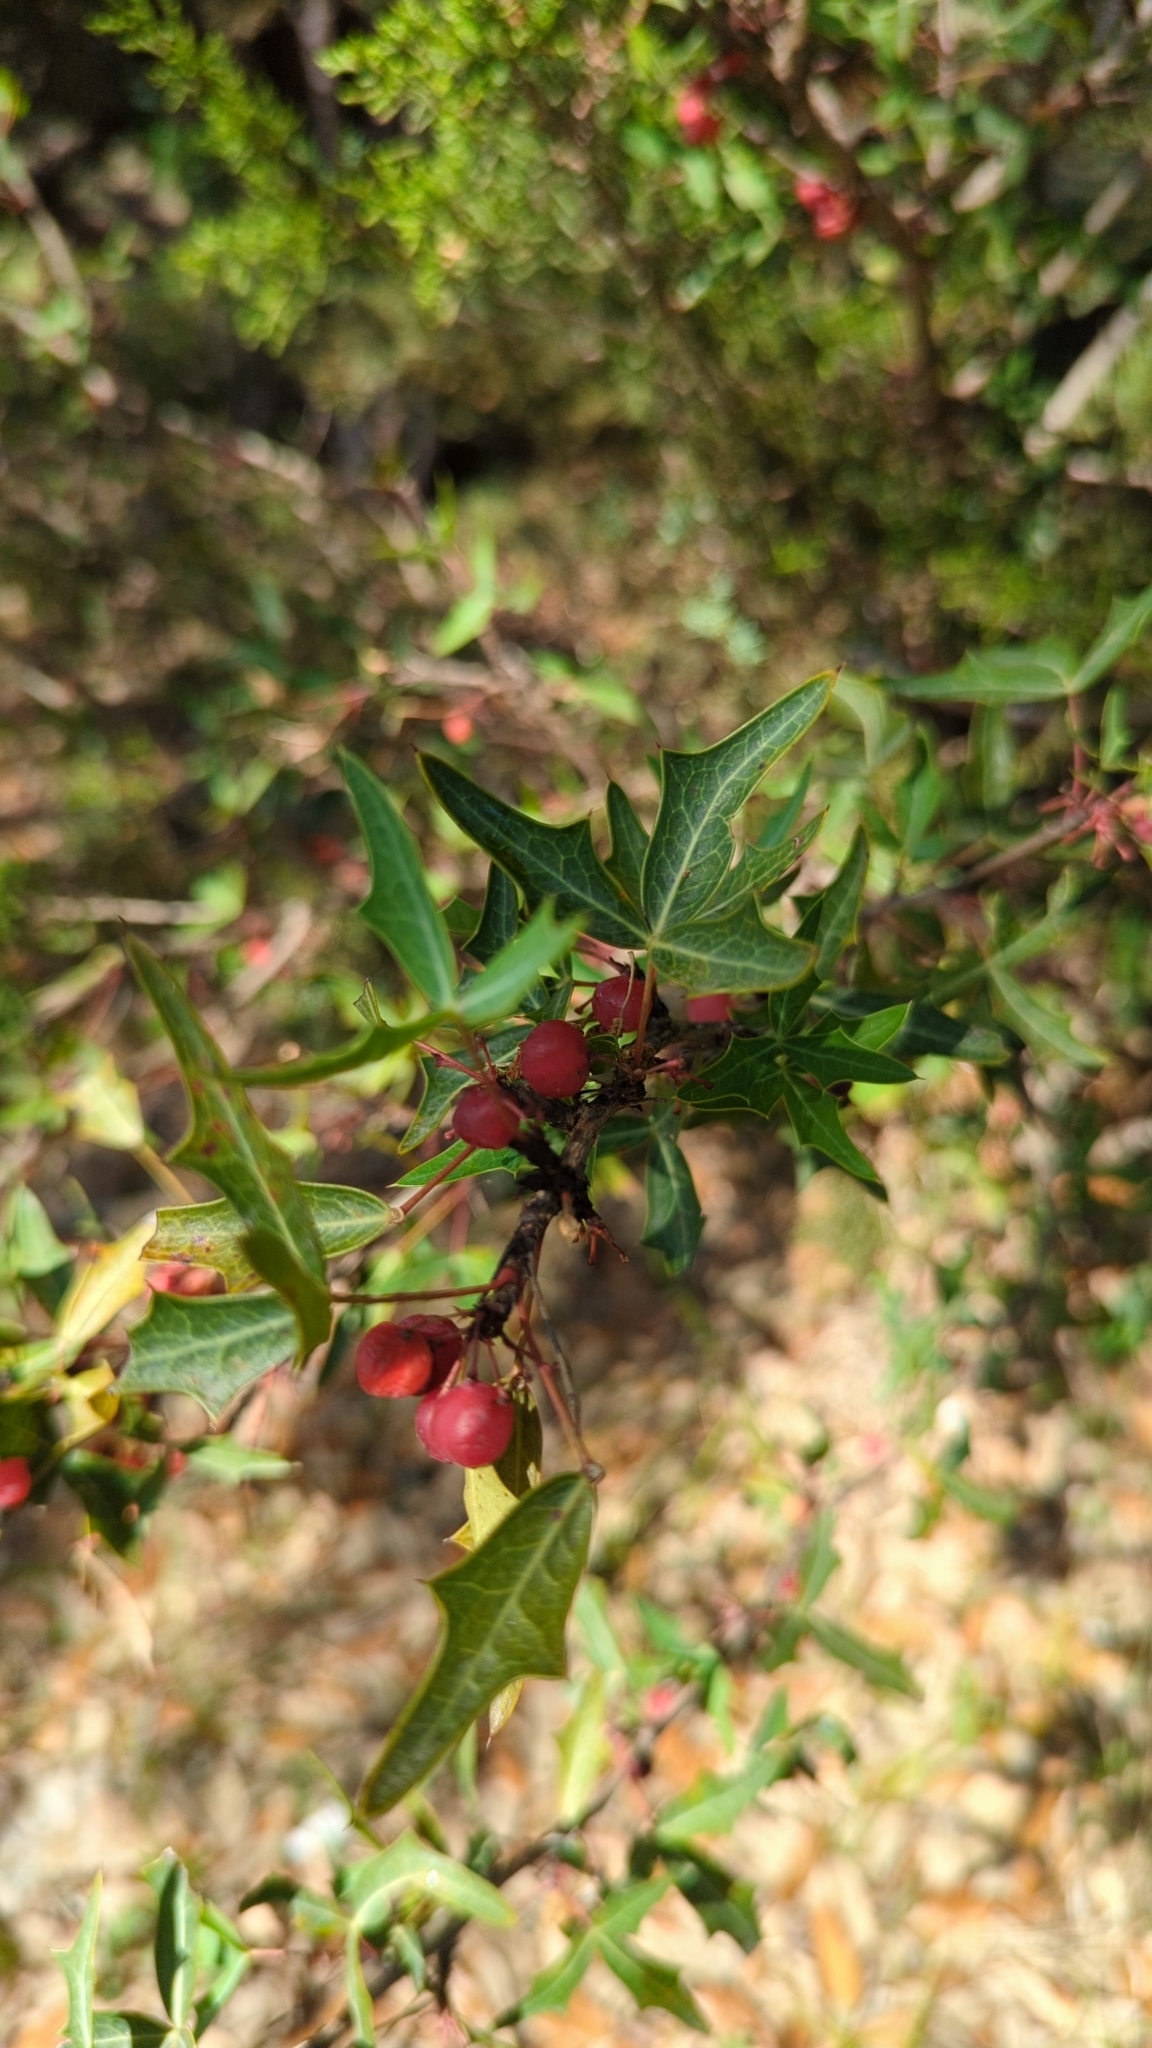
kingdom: Plantae
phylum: Tracheophyta
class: Magnoliopsida
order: Ranunculales
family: Berberidaceae
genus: Alloberberis
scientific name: Alloberberis trifoliolata
